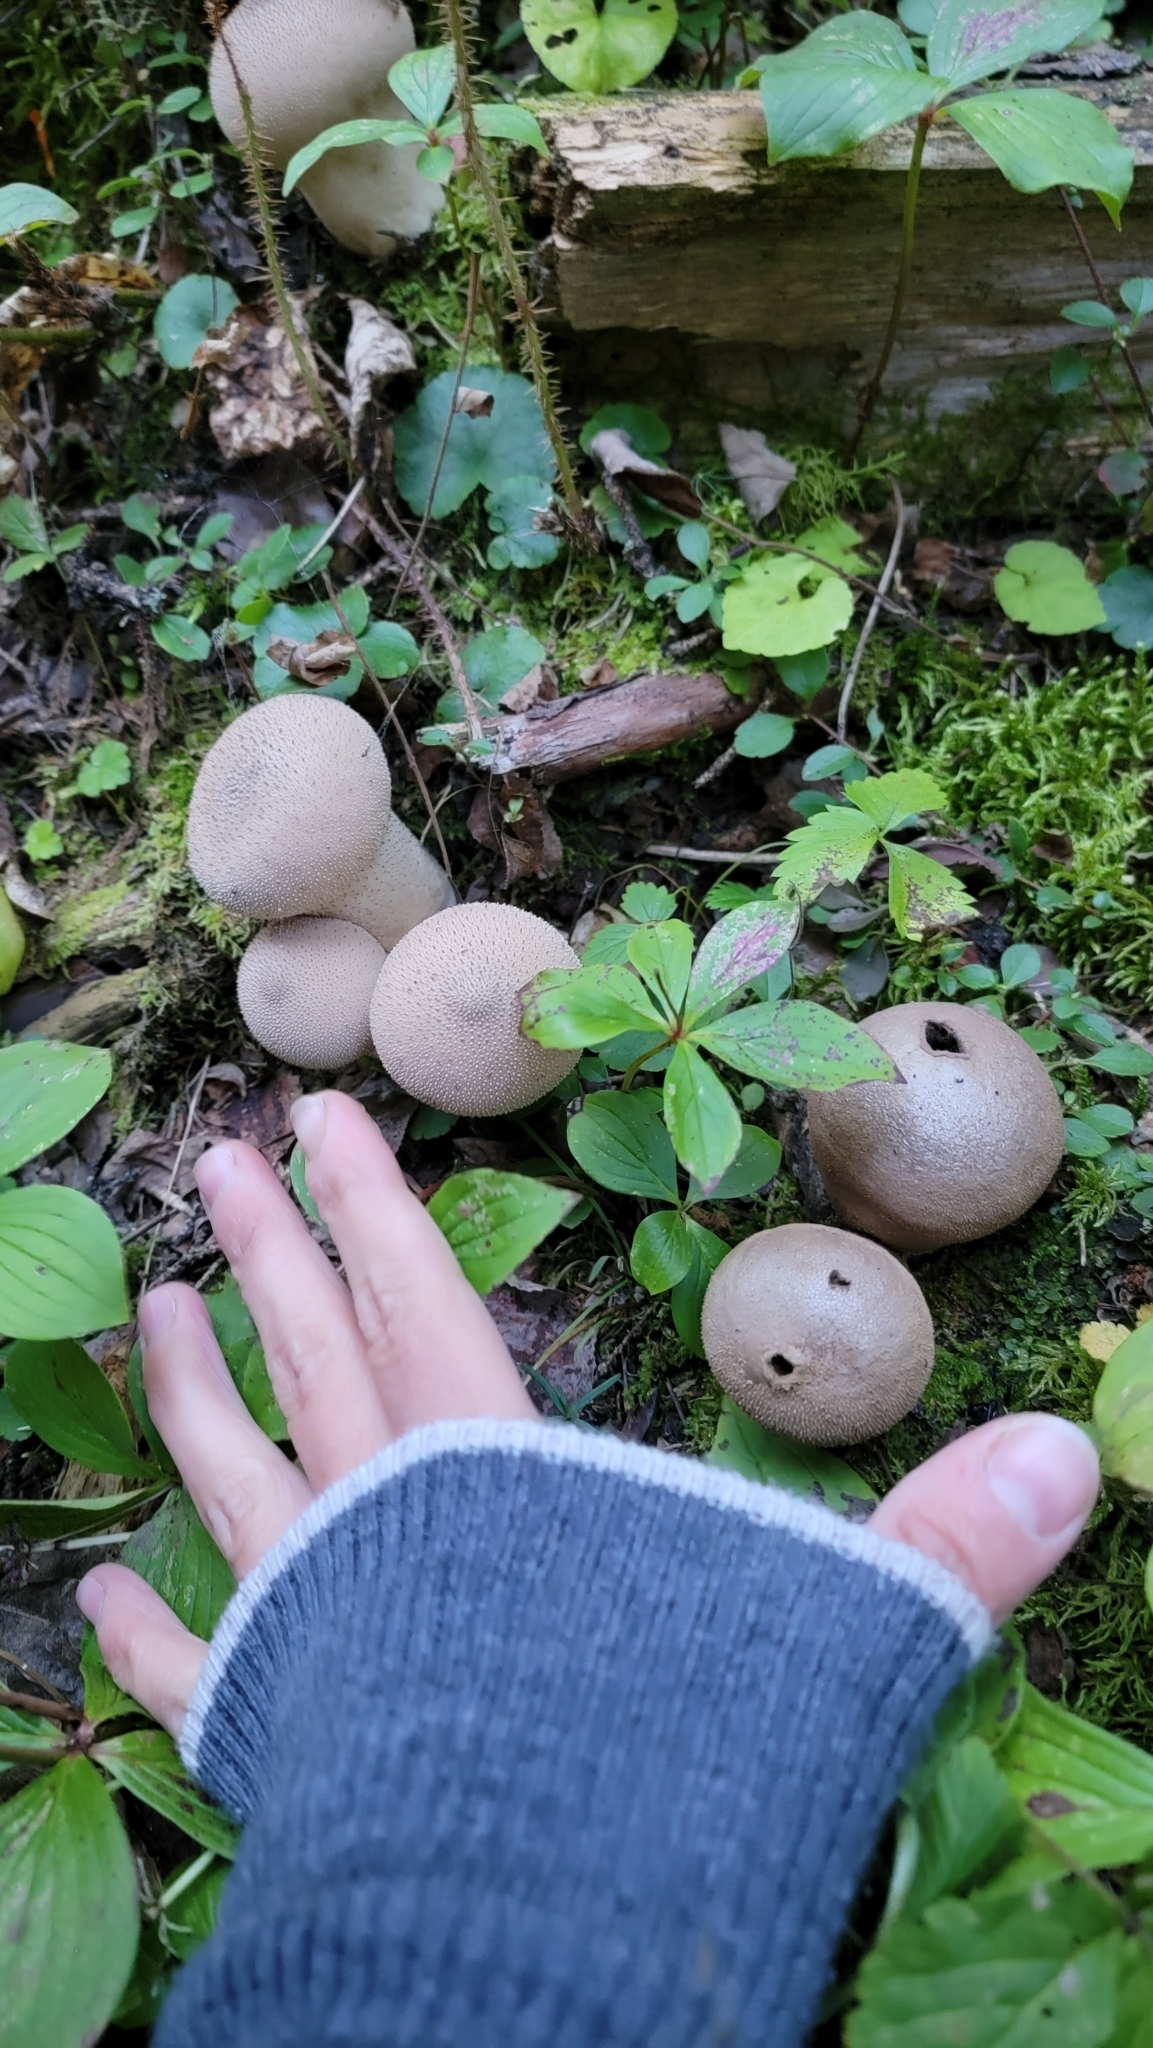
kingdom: Fungi
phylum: Basidiomycota
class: Agaricomycetes
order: Agaricales
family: Lycoperdaceae
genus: Apioperdon
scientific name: Apioperdon pyriforme
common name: Pear-shaped puffball
